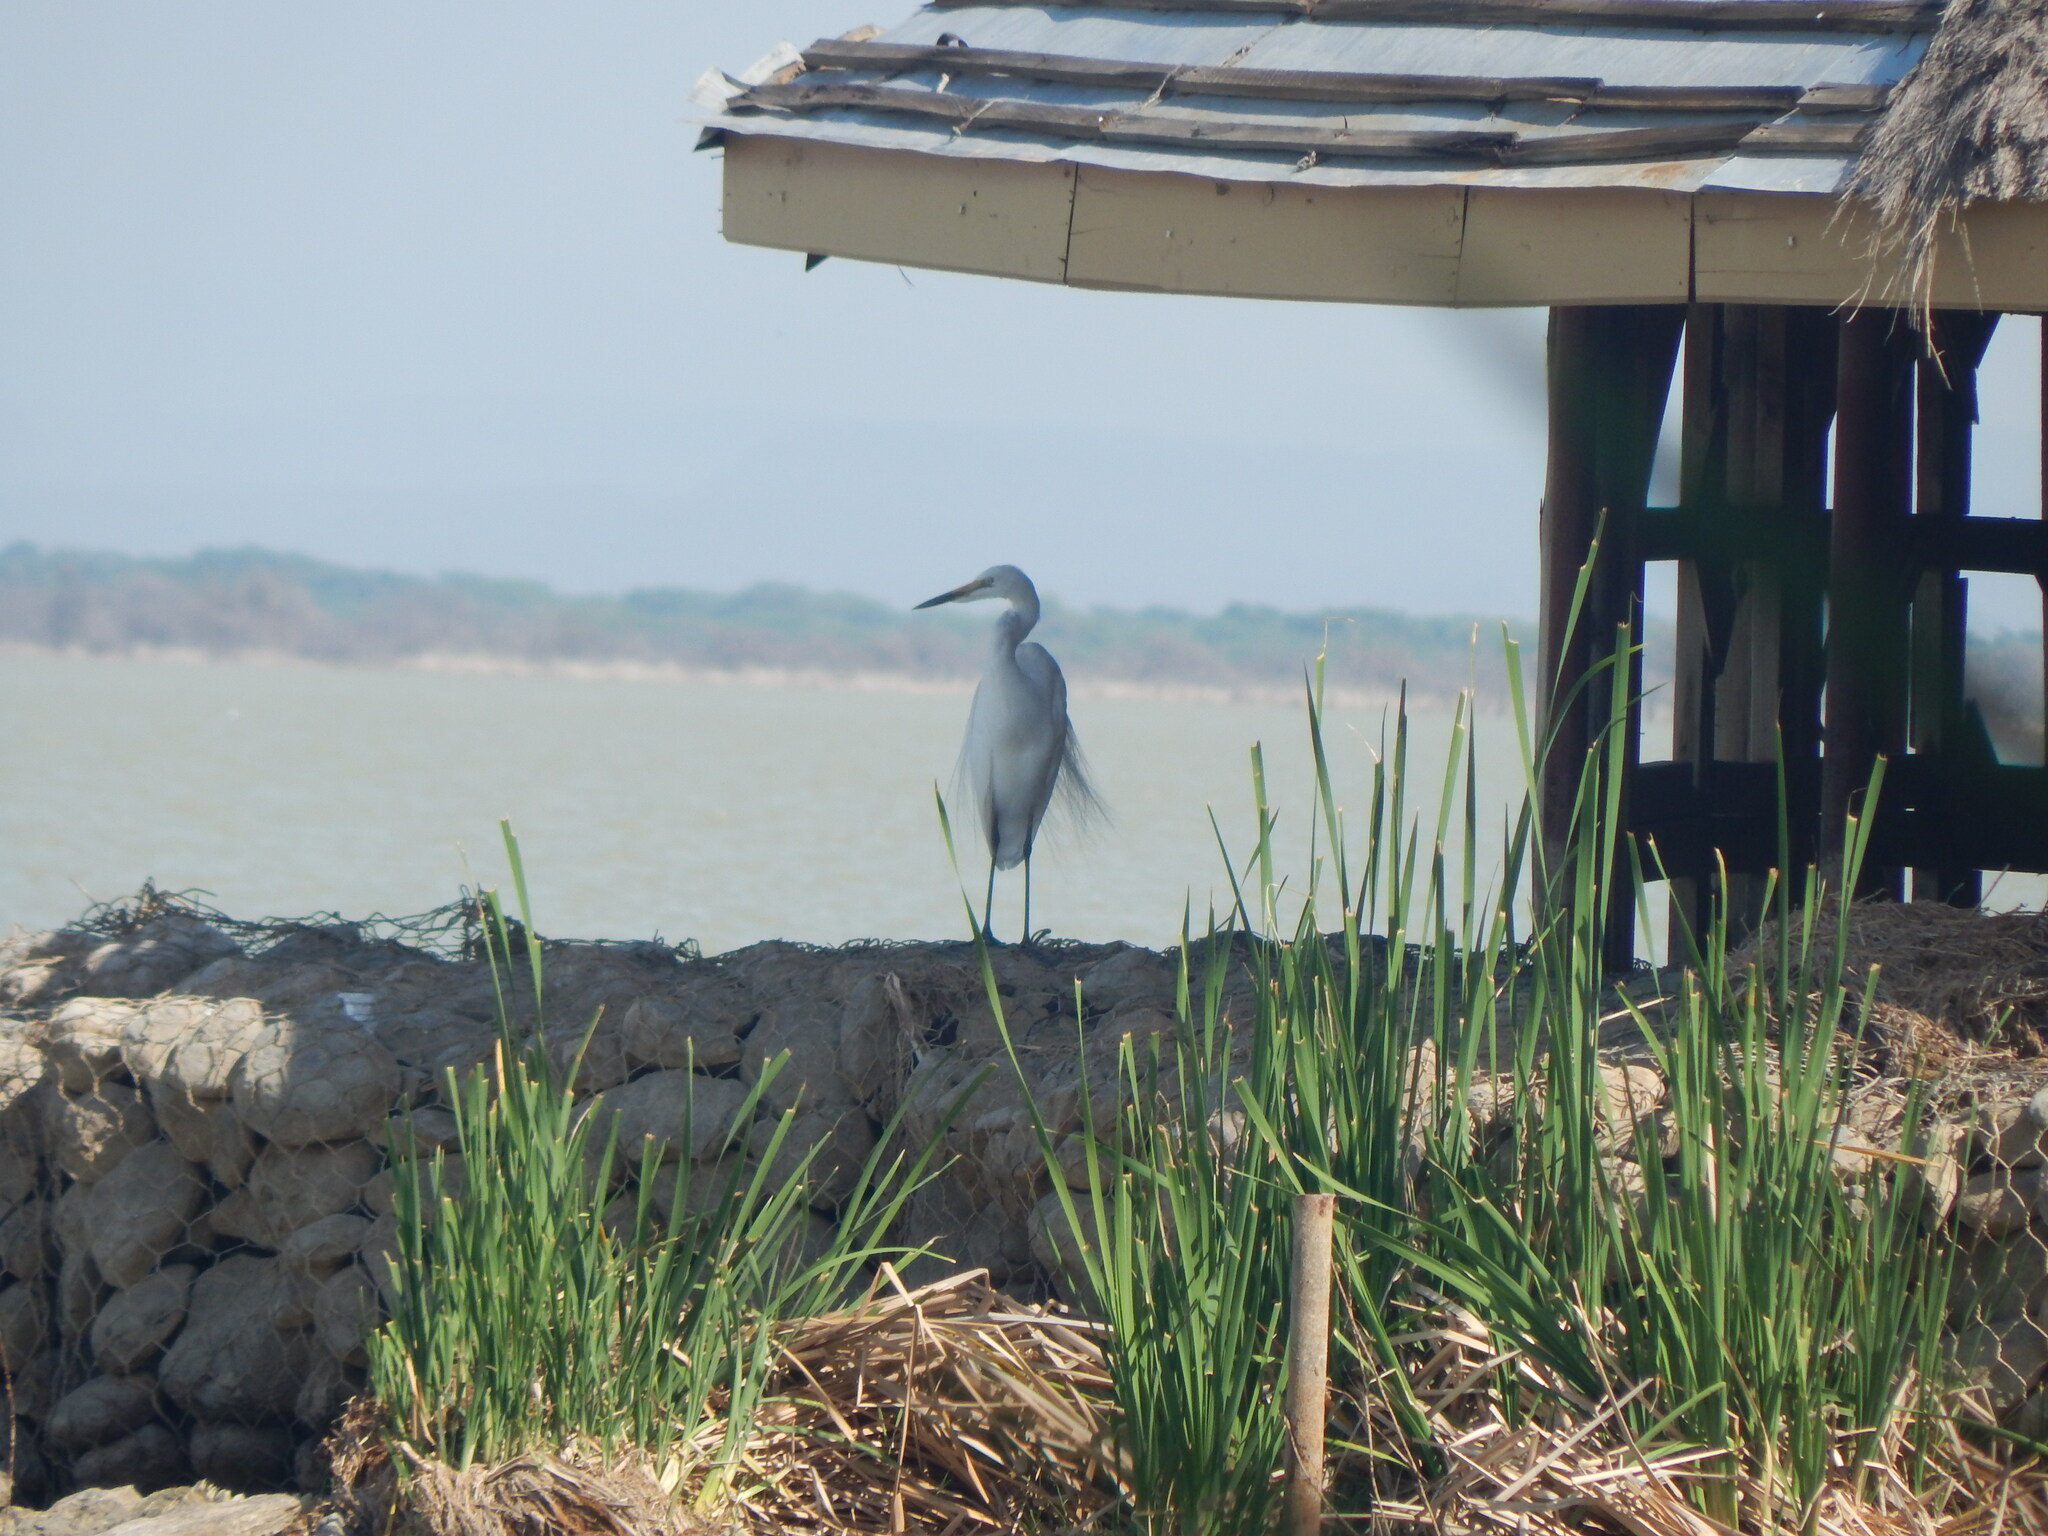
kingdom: Animalia
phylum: Chordata
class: Aves
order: Pelecaniformes
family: Ardeidae
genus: Ardea
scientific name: Ardea alba
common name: Great egret
